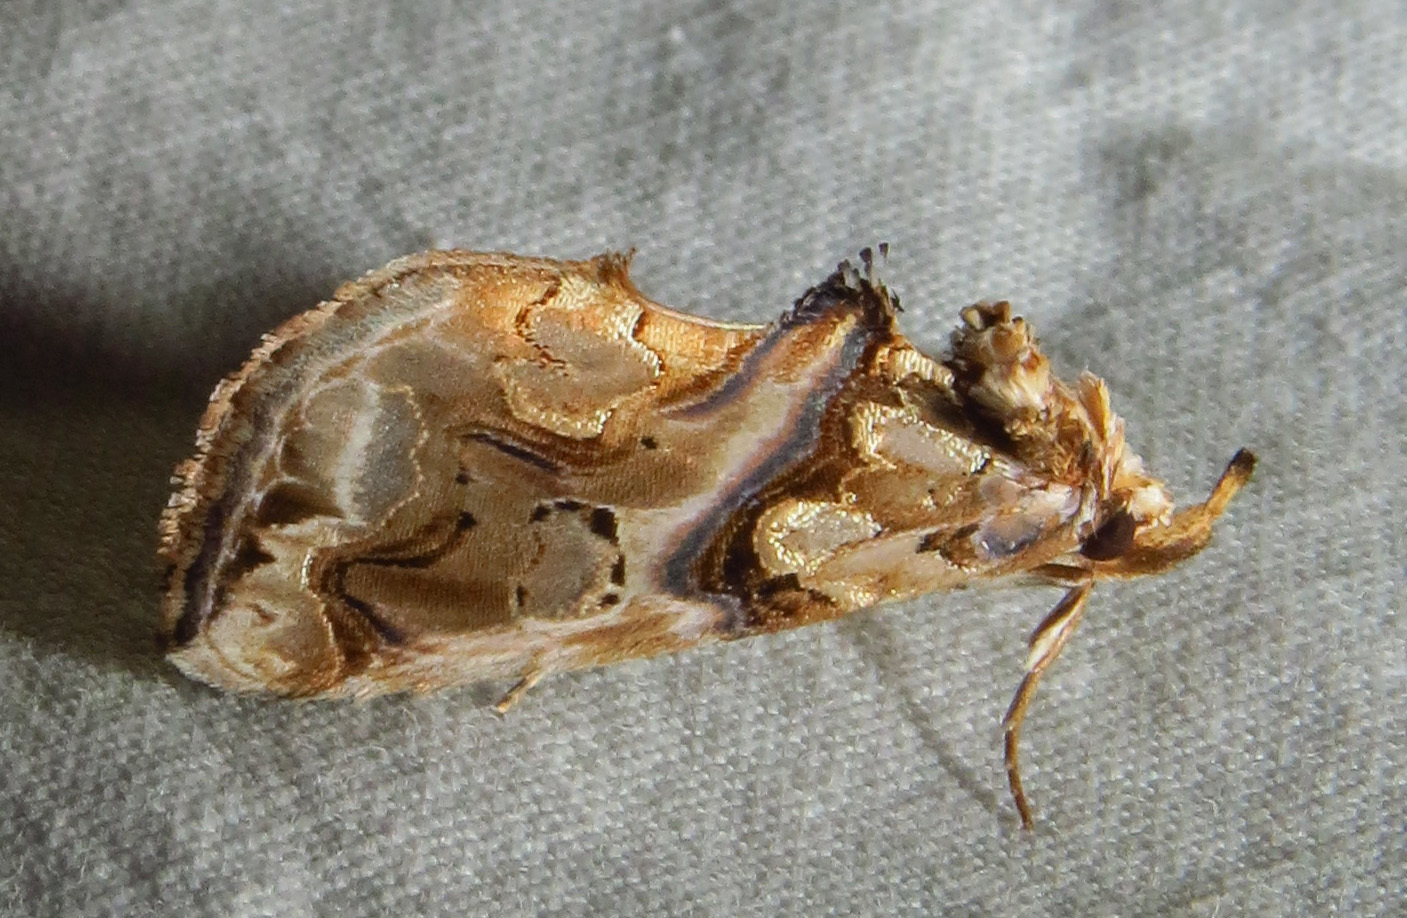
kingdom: Animalia
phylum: Arthropoda
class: Insecta
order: Lepidoptera
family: Erebidae
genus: Plusiodonta
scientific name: Plusiodonta compressipalpis
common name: Moonseed moth
